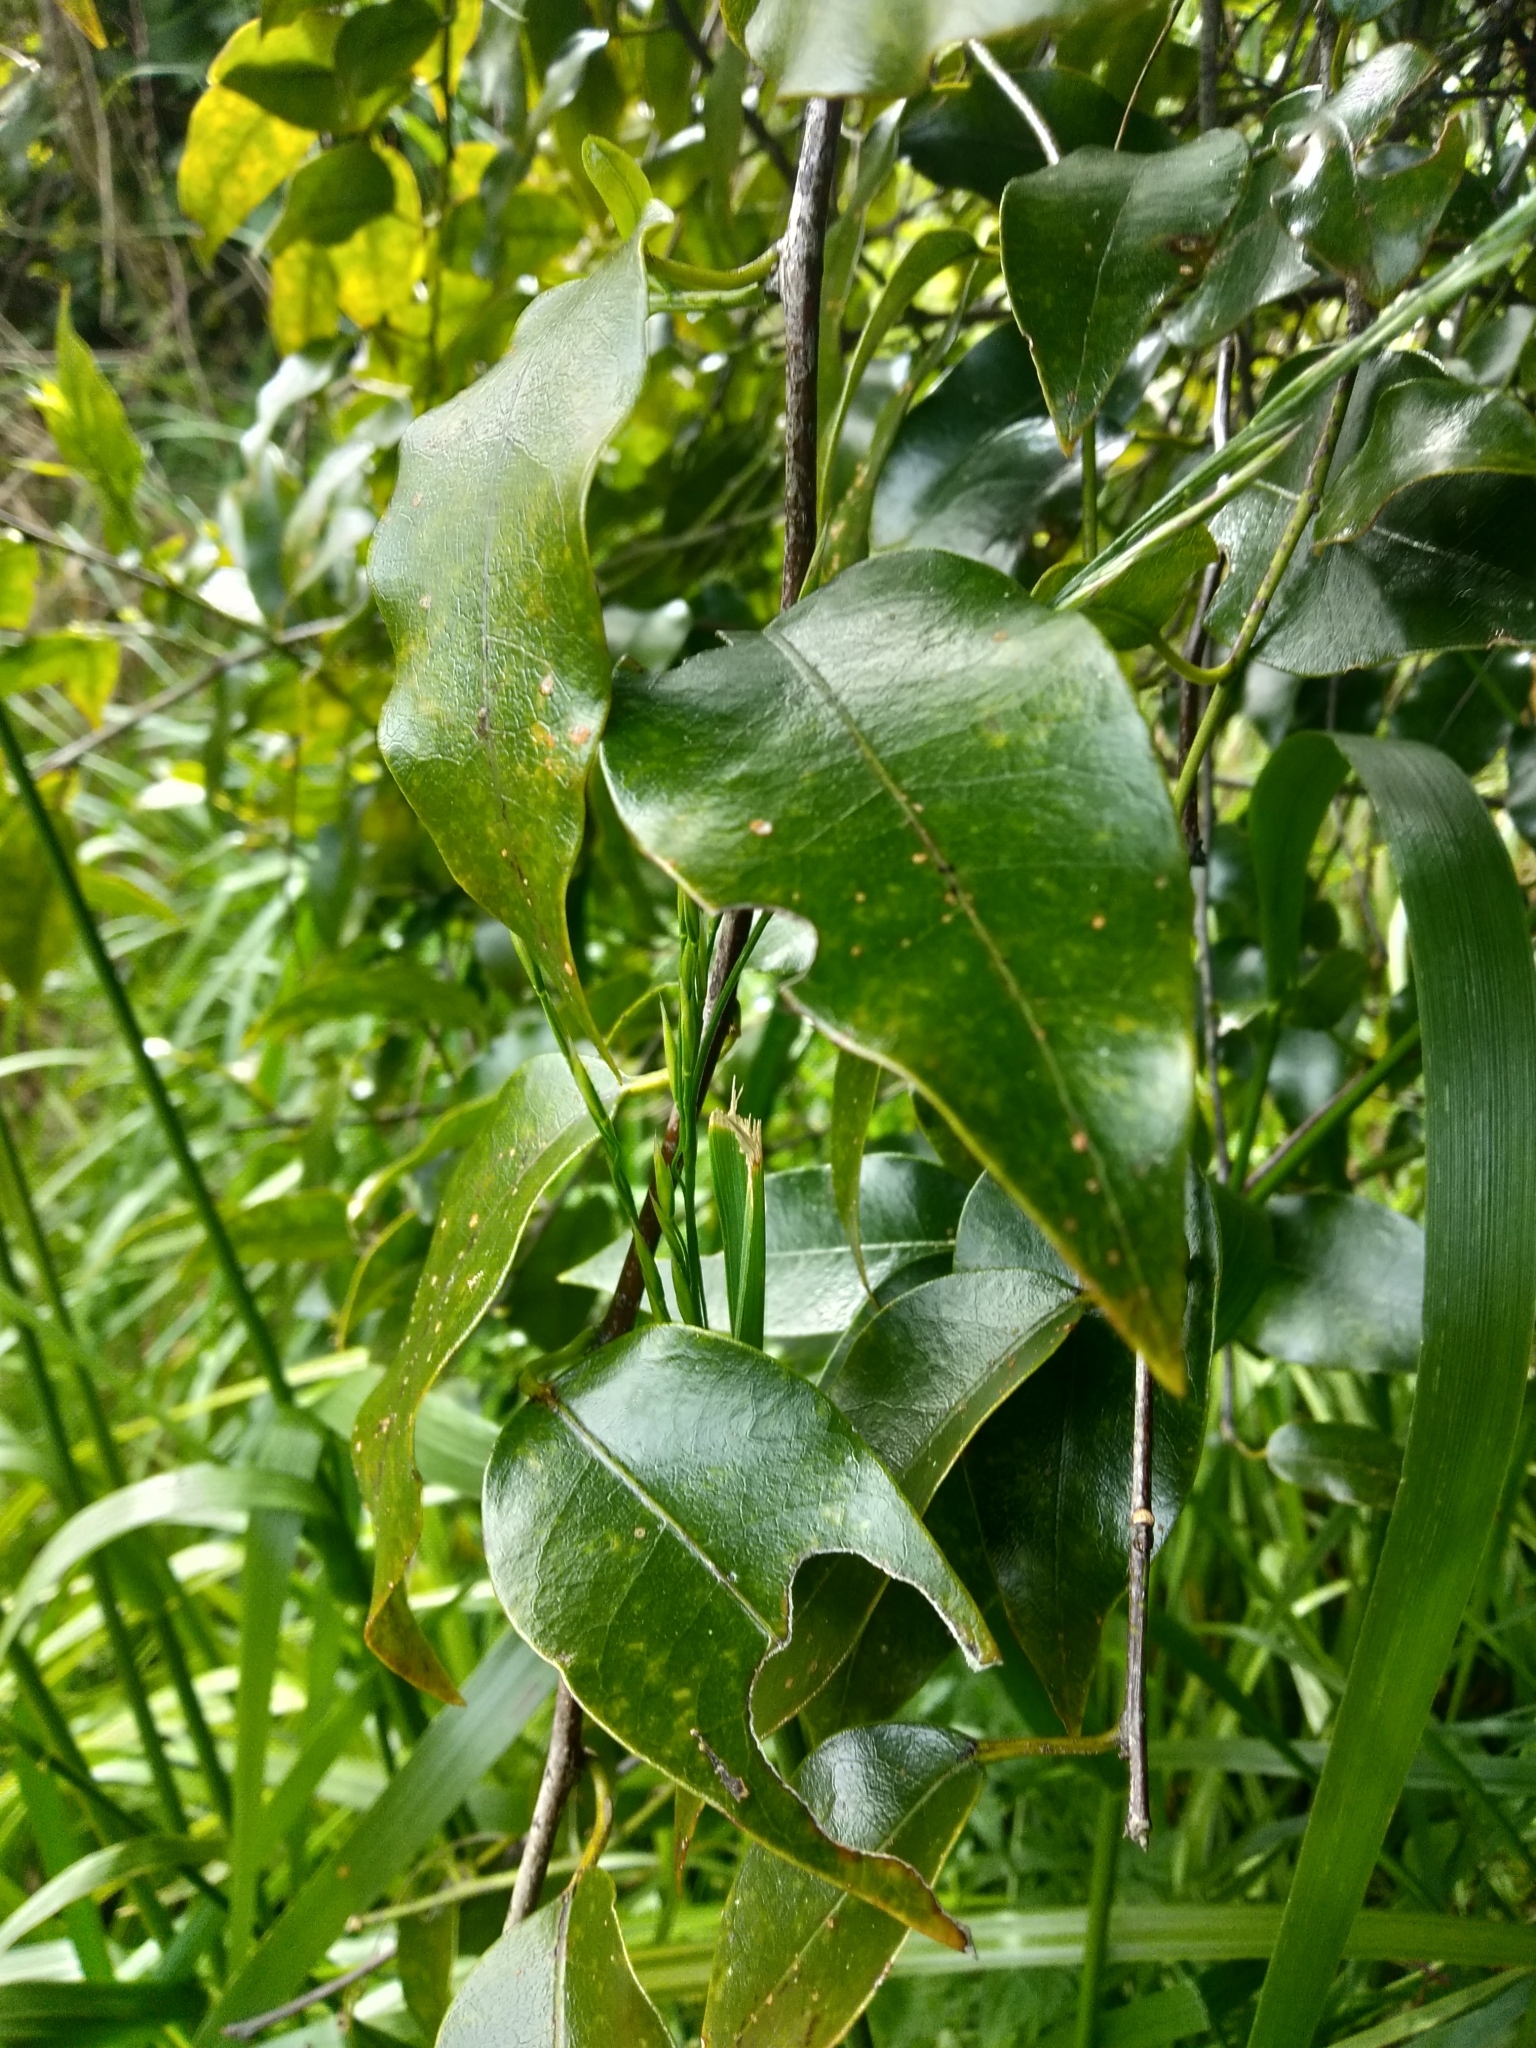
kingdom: Plantae
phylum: Tracheophyta
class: Magnoliopsida
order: Malpighiales
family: Passifloraceae
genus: Passiflora
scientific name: Passiflora tetrandra
